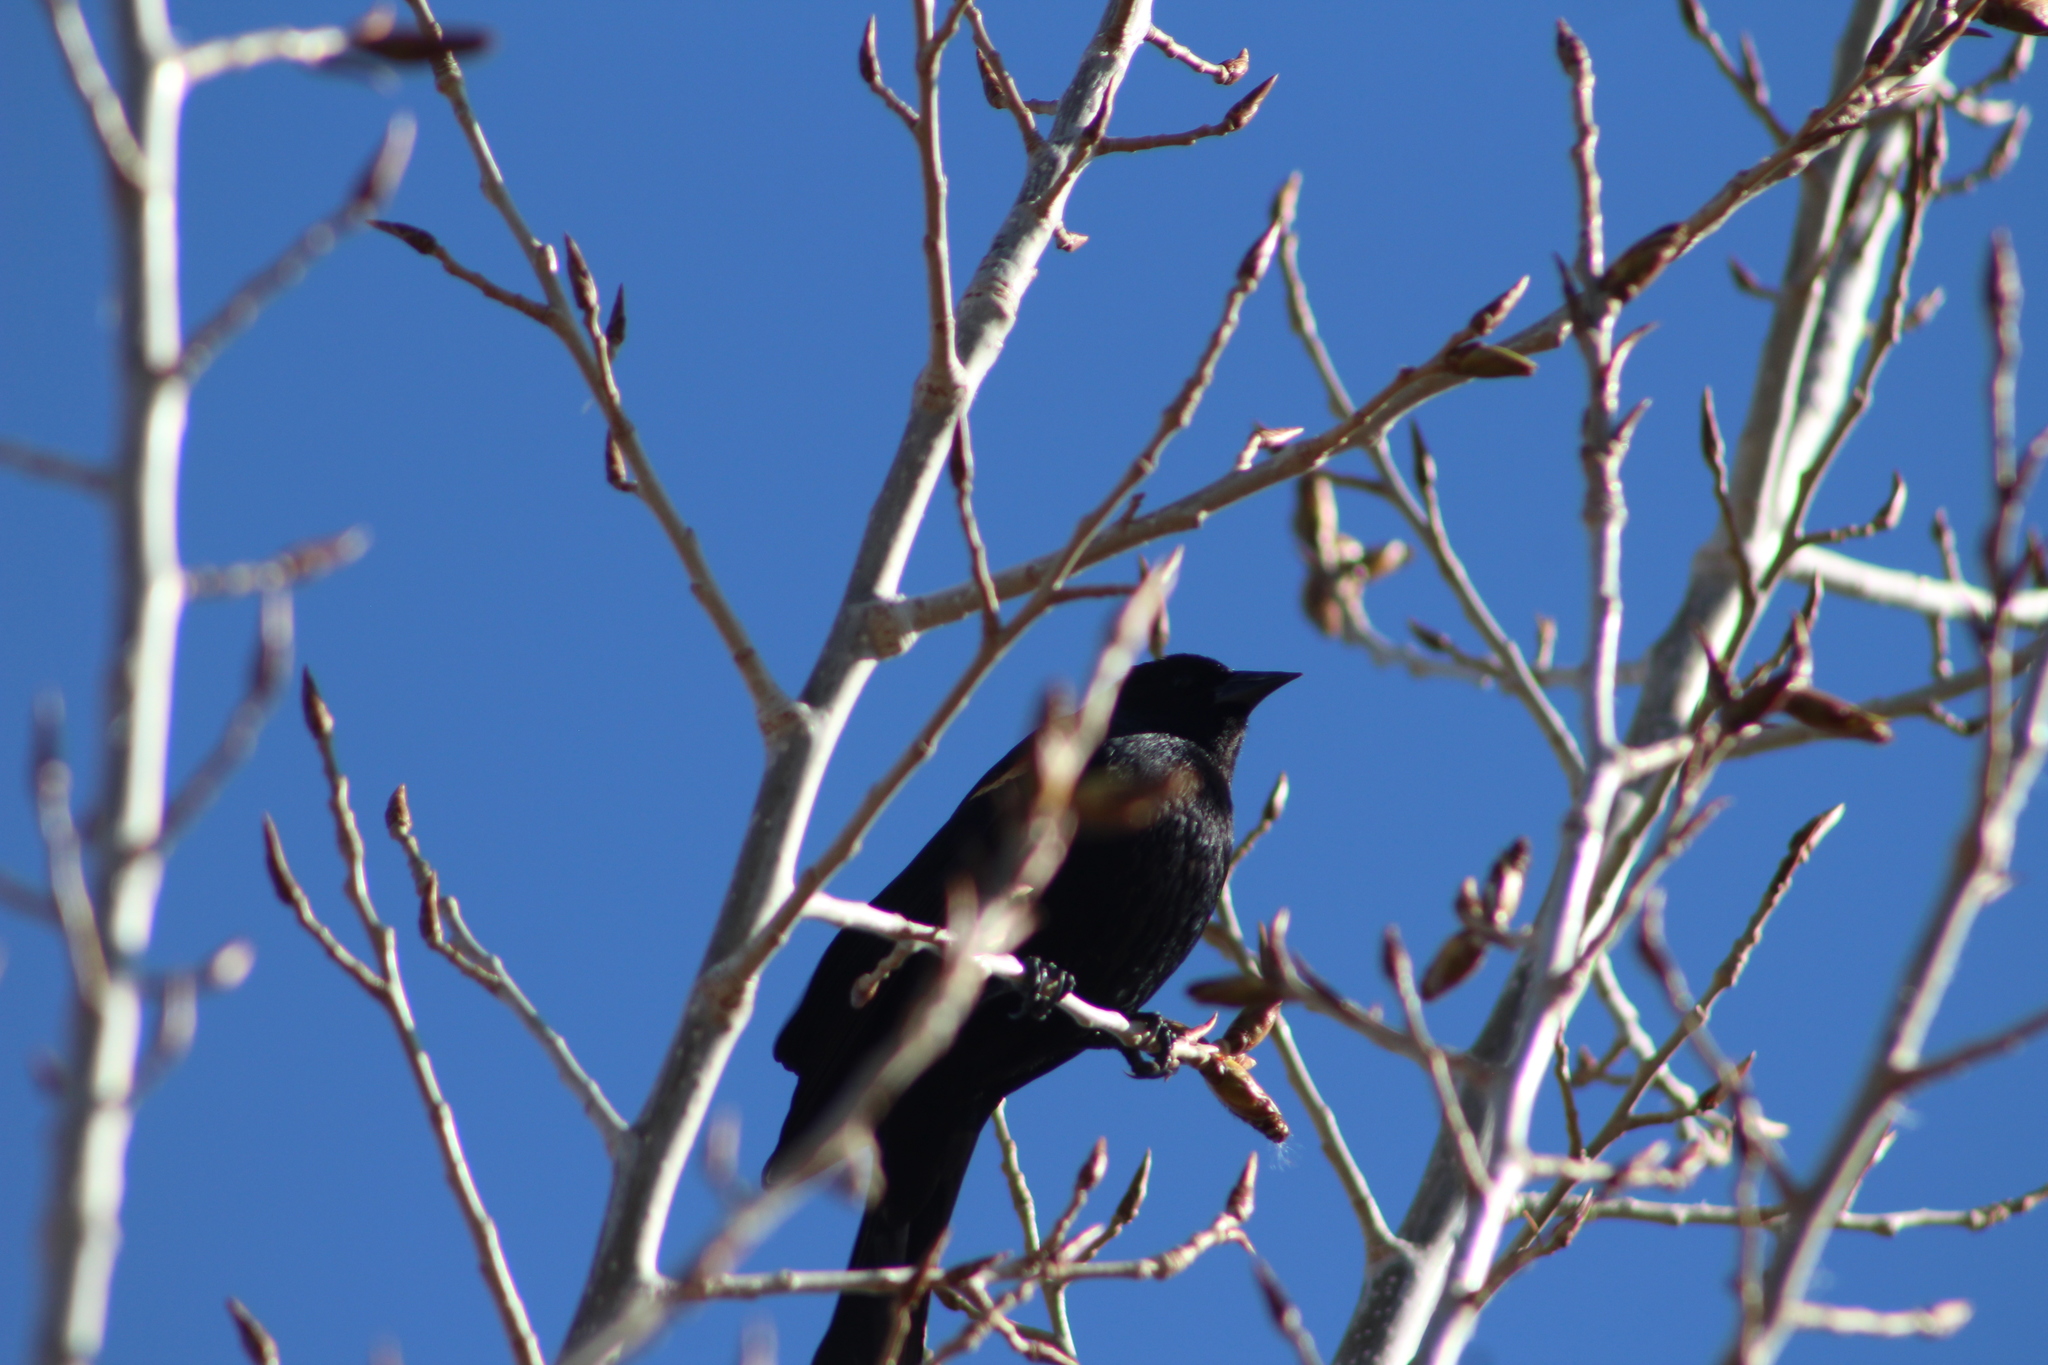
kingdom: Animalia
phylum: Chordata
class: Aves
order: Passeriformes
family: Icteridae
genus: Agelaius
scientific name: Agelaius phoeniceus
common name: Red-winged blackbird
